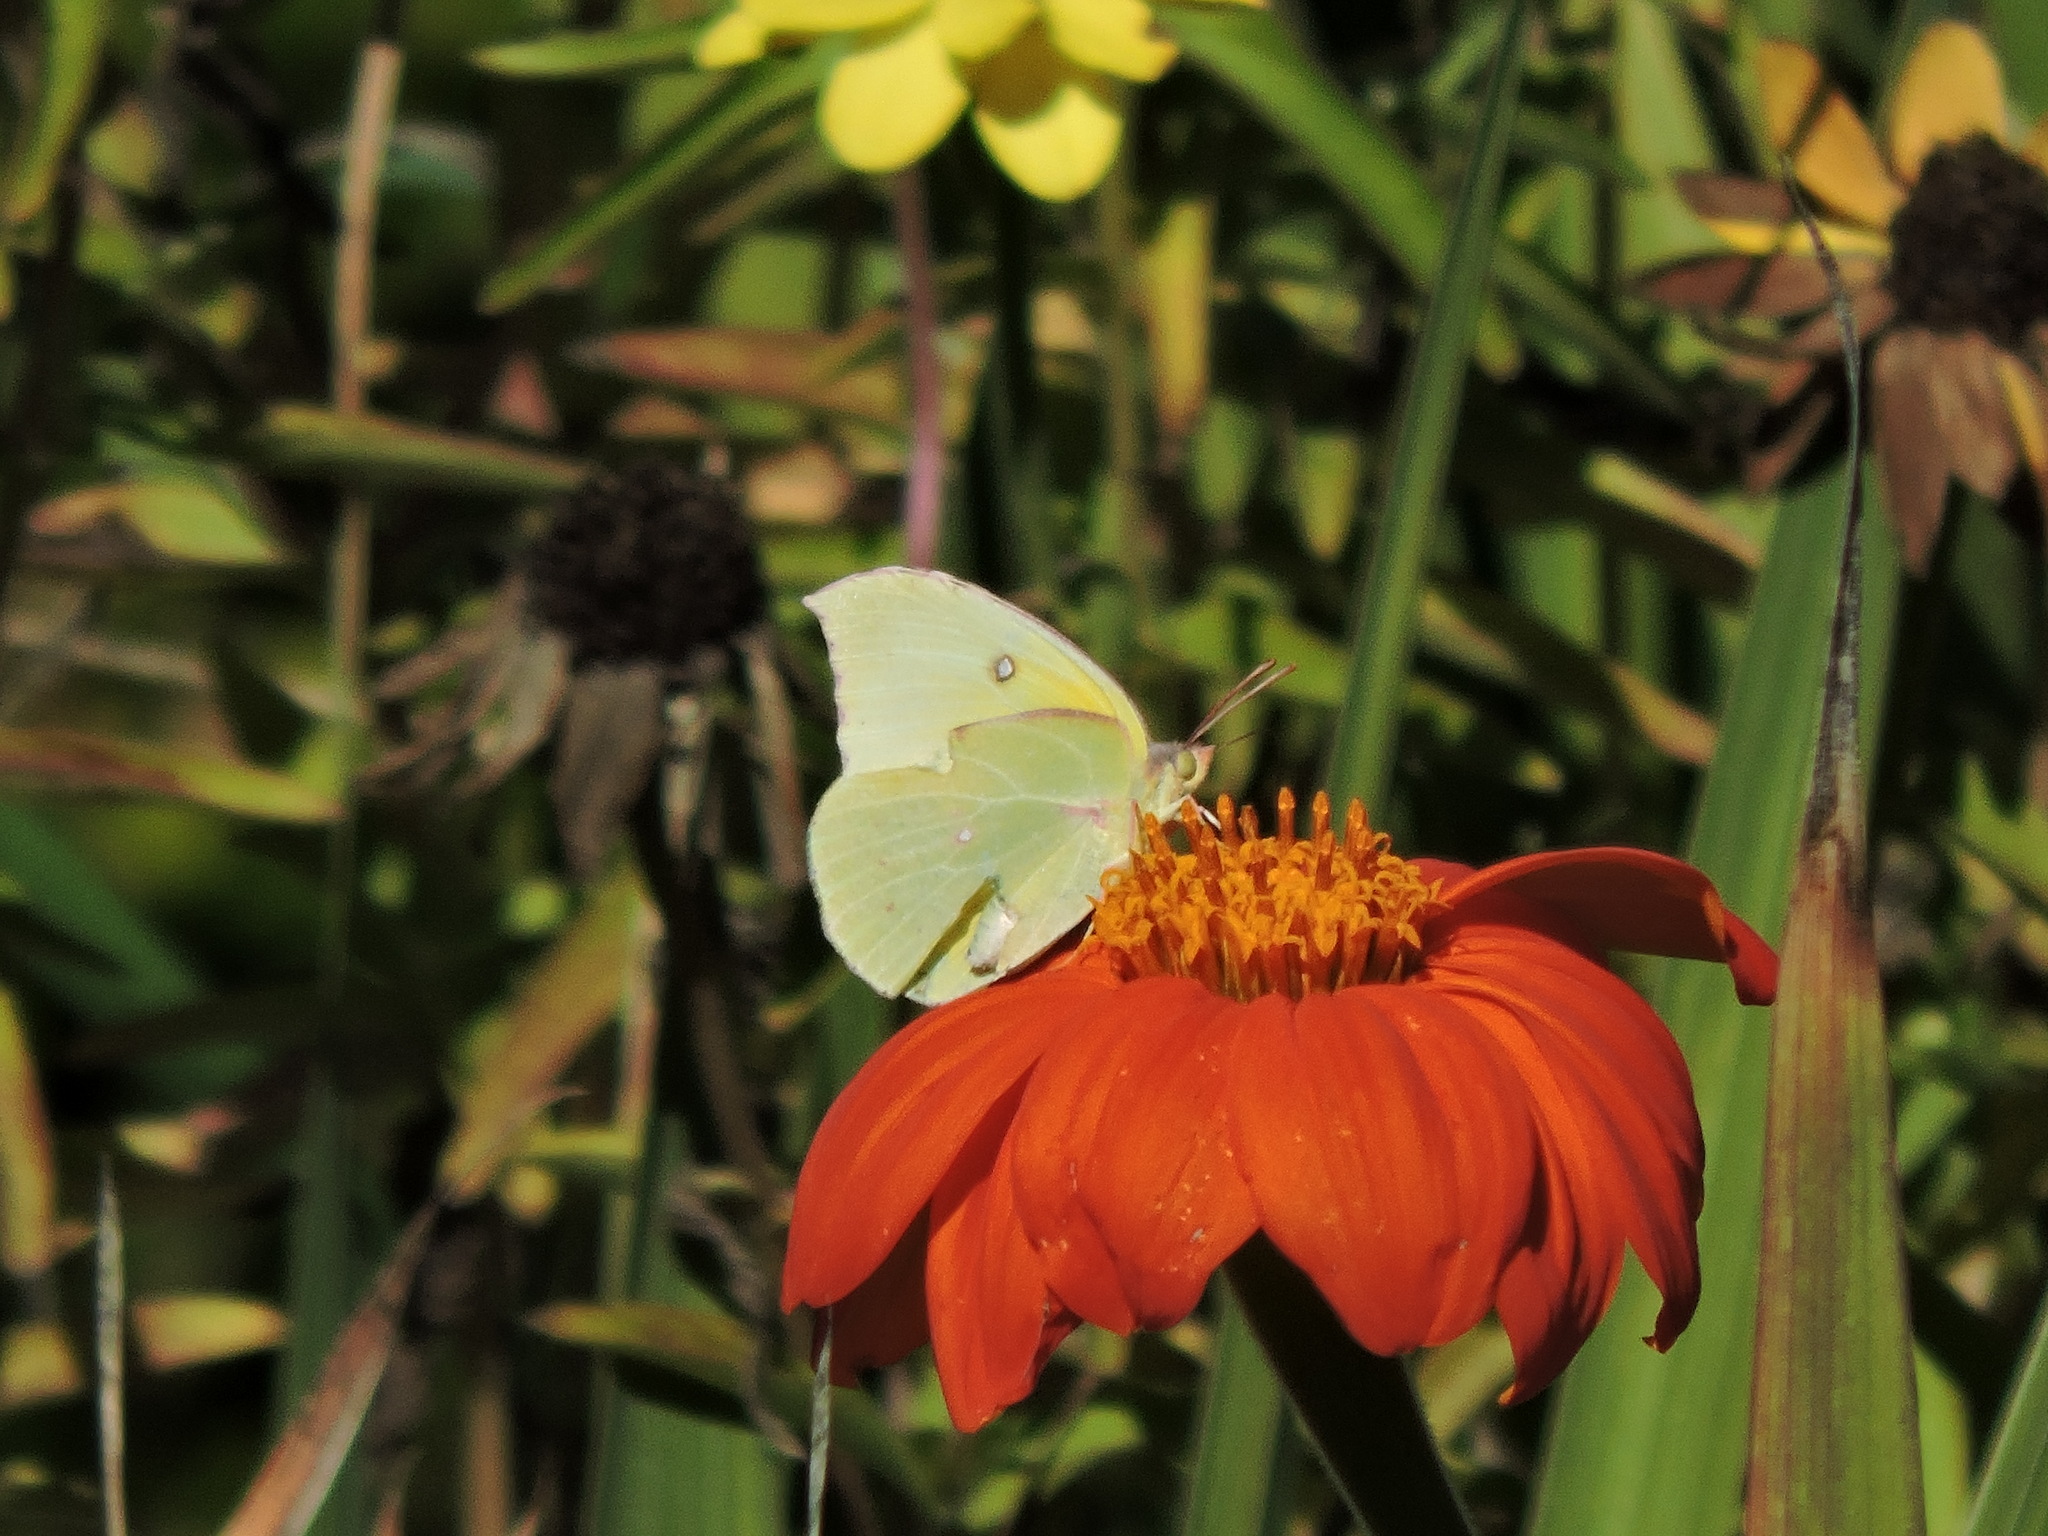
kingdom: Animalia
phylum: Arthropoda
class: Insecta
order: Lepidoptera
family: Pieridae
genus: Zerene
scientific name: Zerene eurydice
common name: California dogface
